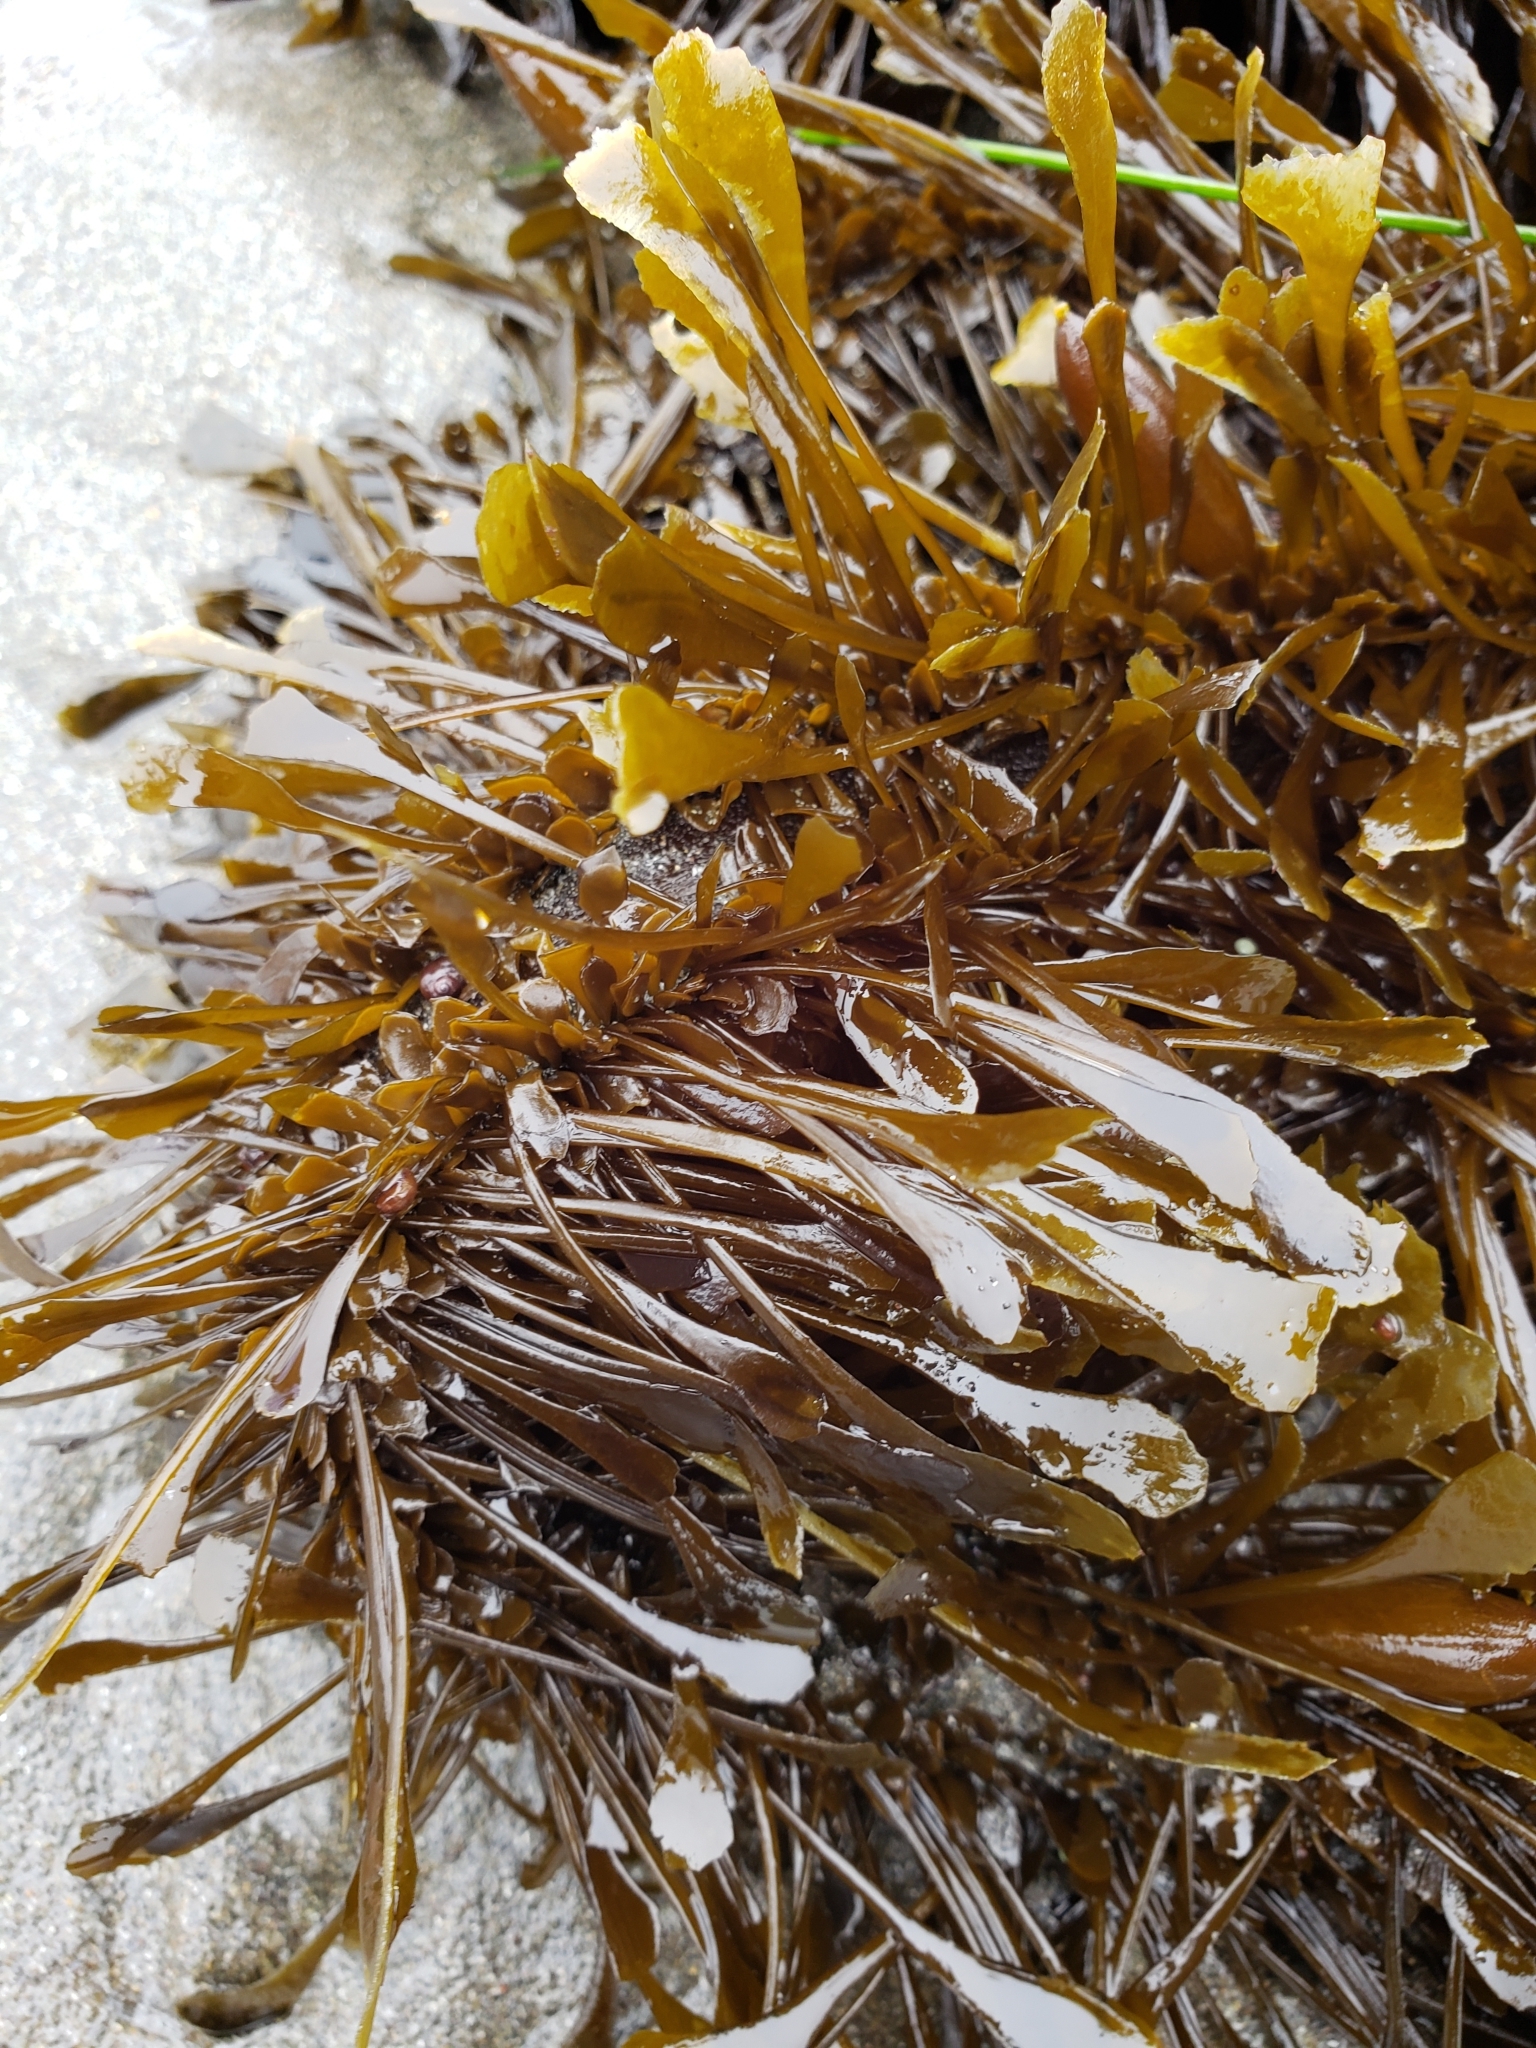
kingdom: Chromista
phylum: Ochrophyta
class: Phaeophyceae
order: Laminariales
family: Lessoniaceae
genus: Egregia
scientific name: Egregia menziesii
